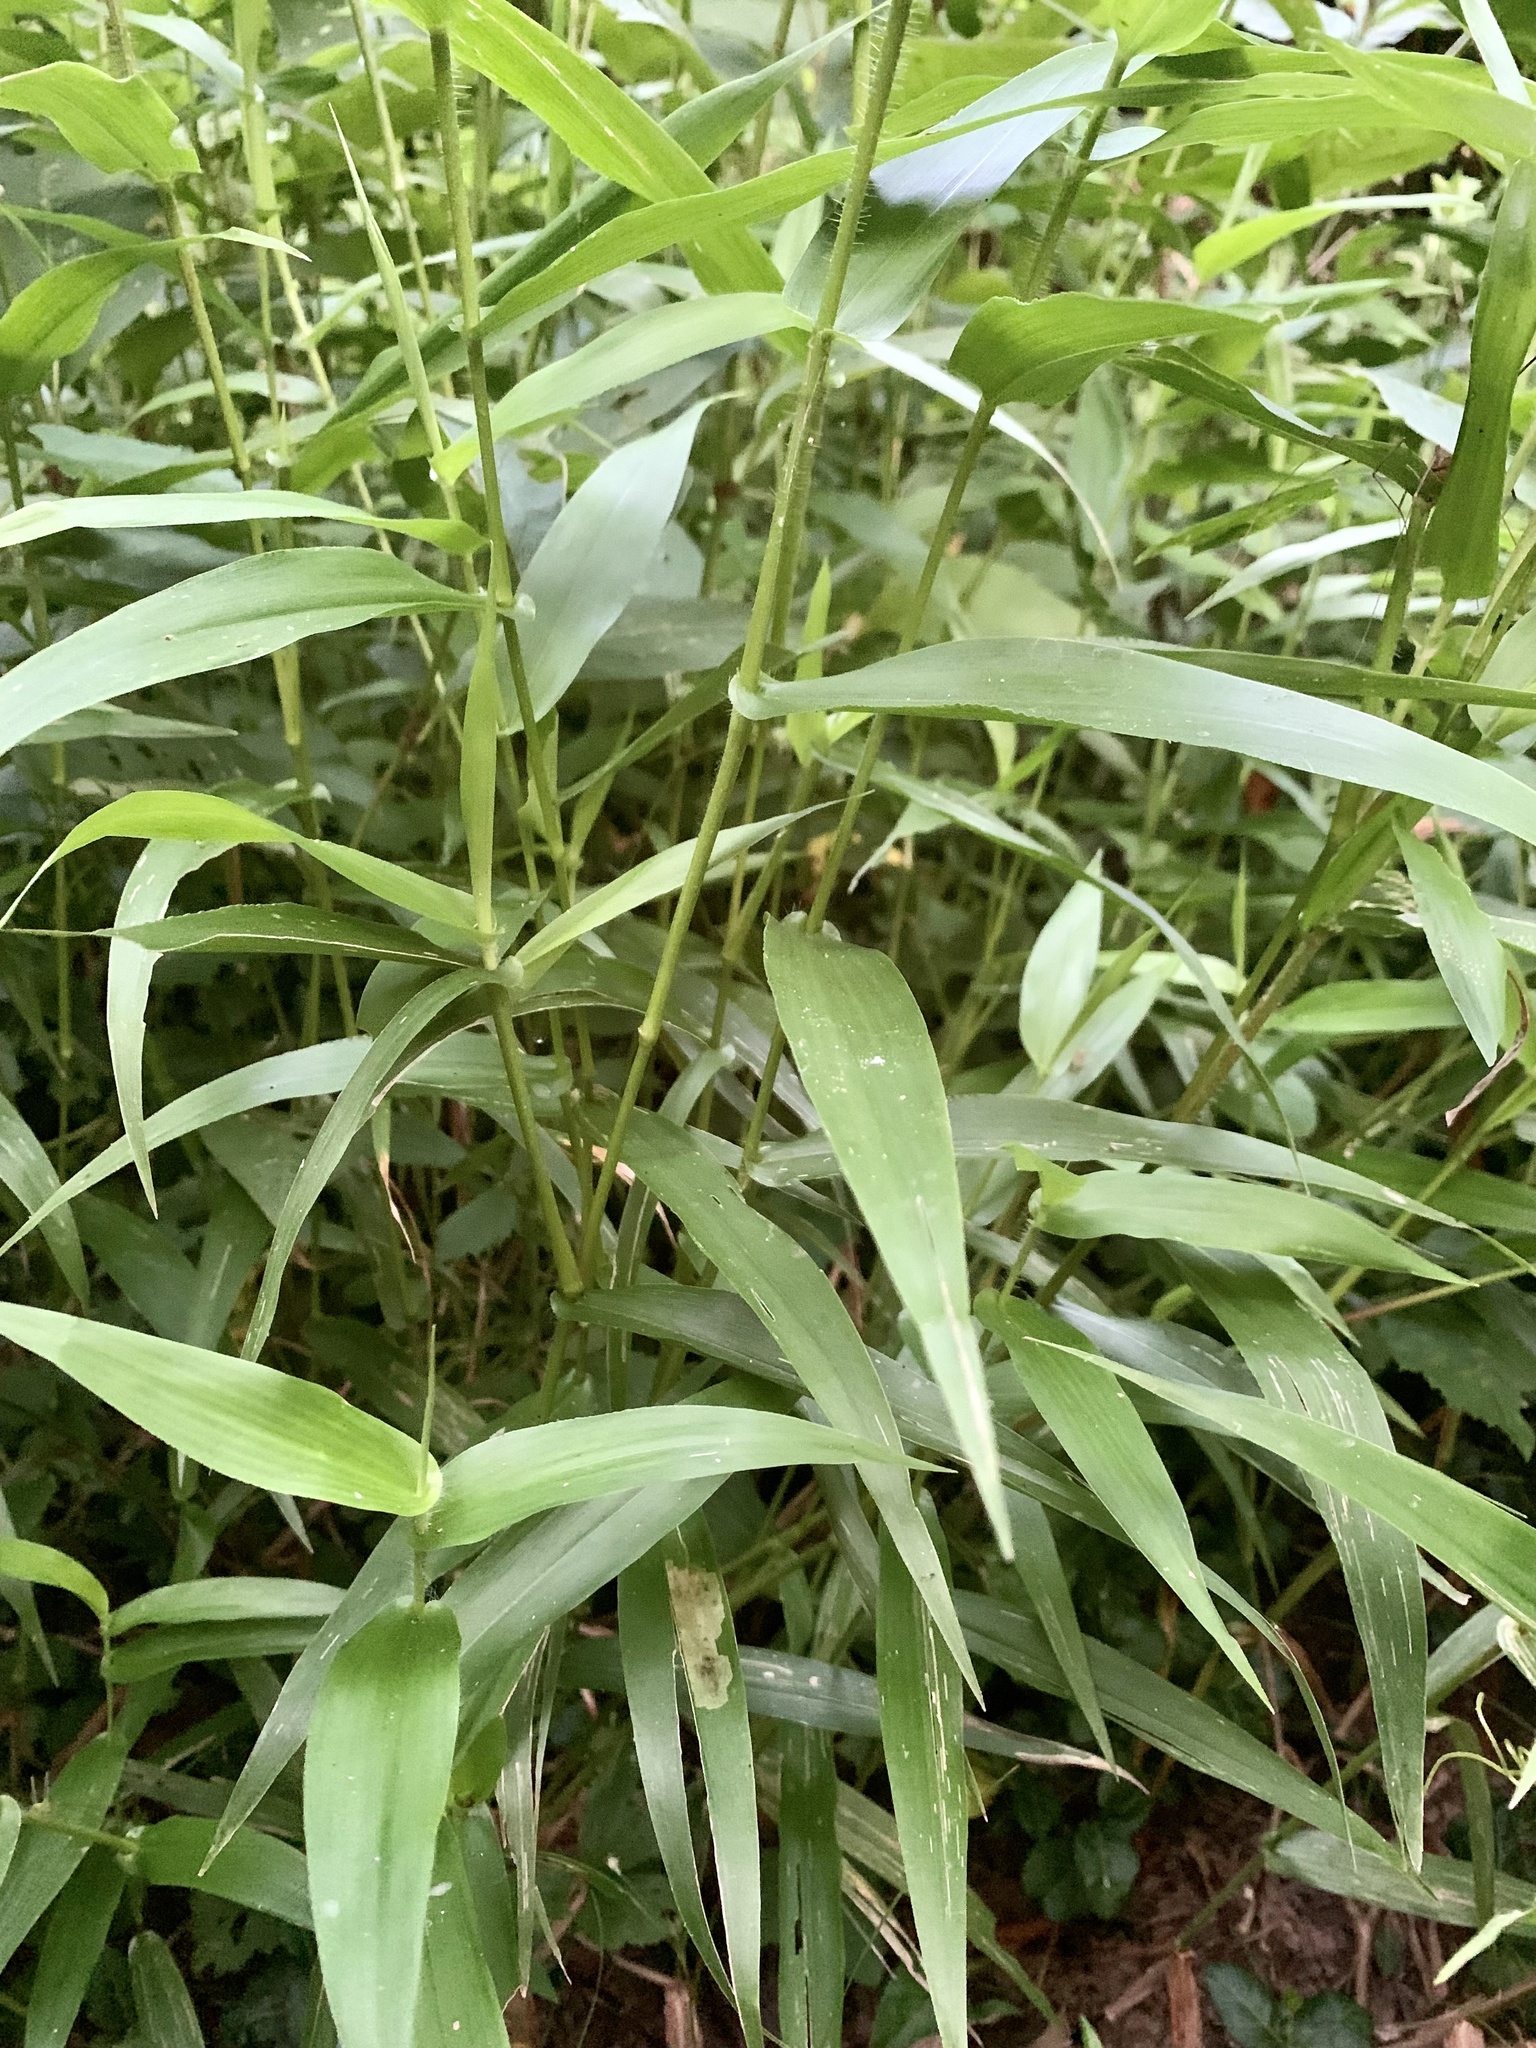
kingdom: Plantae
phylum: Tracheophyta
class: Liliopsida
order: Poales
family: Poaceae
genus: Dichanthelium
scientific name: Dichanthelium clandestinum
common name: Deer-tongue grass
